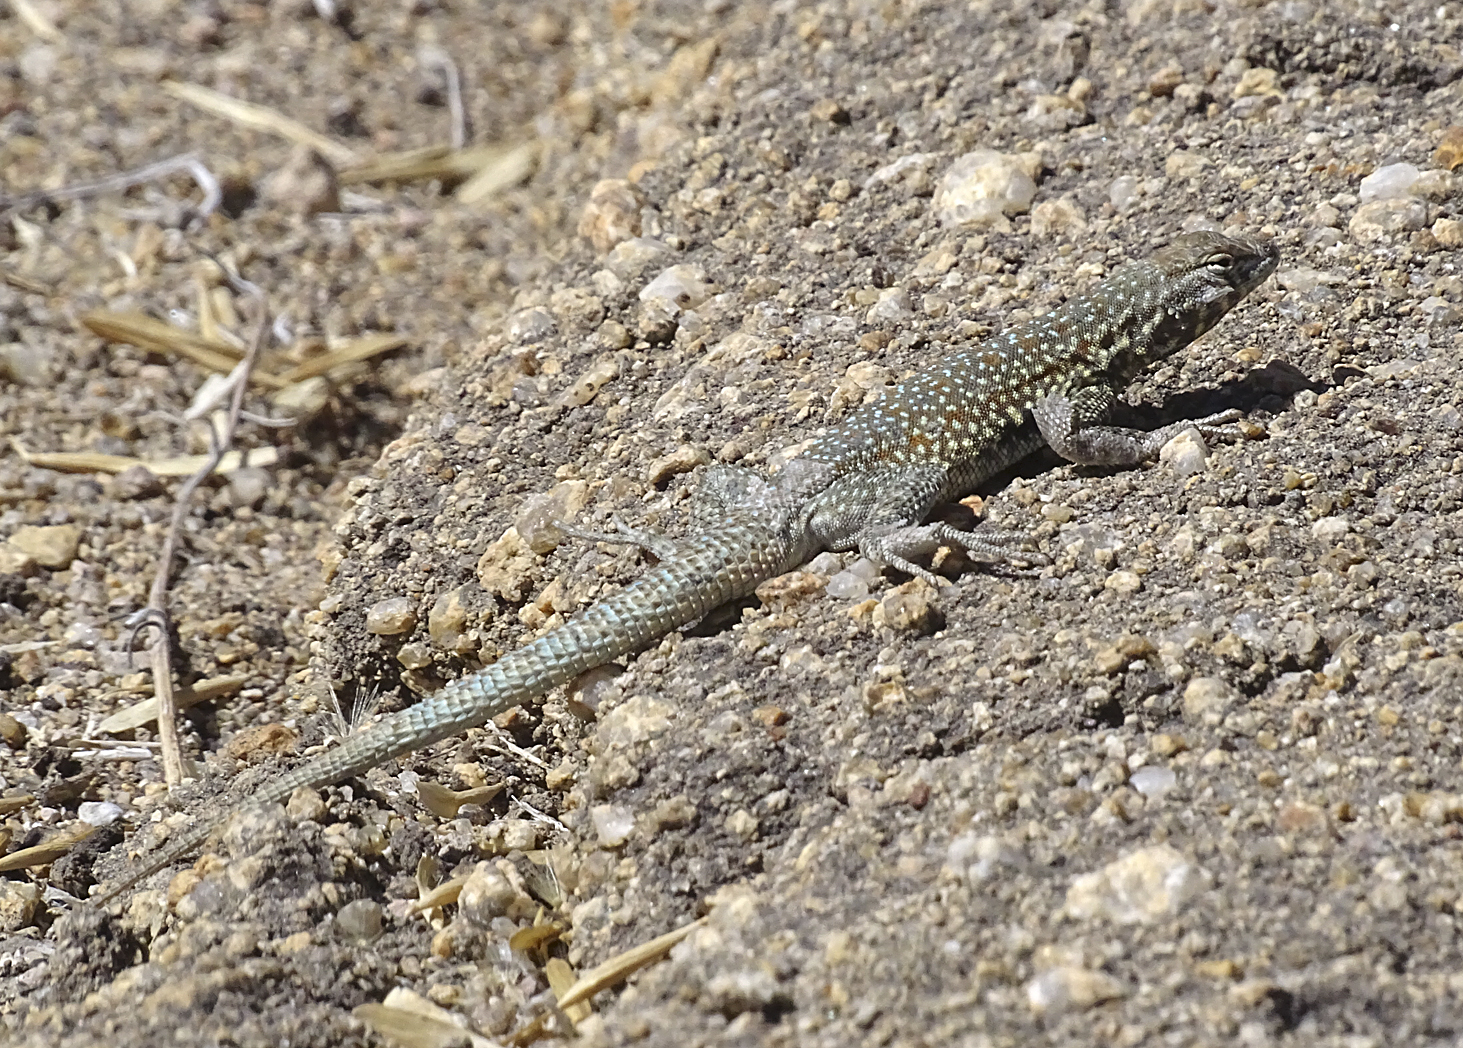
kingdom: Animalia
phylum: Chordata
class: Squamata
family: Phrynosomatidae
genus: Uta
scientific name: Uta stansburiana
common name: Side-blotched lizard
